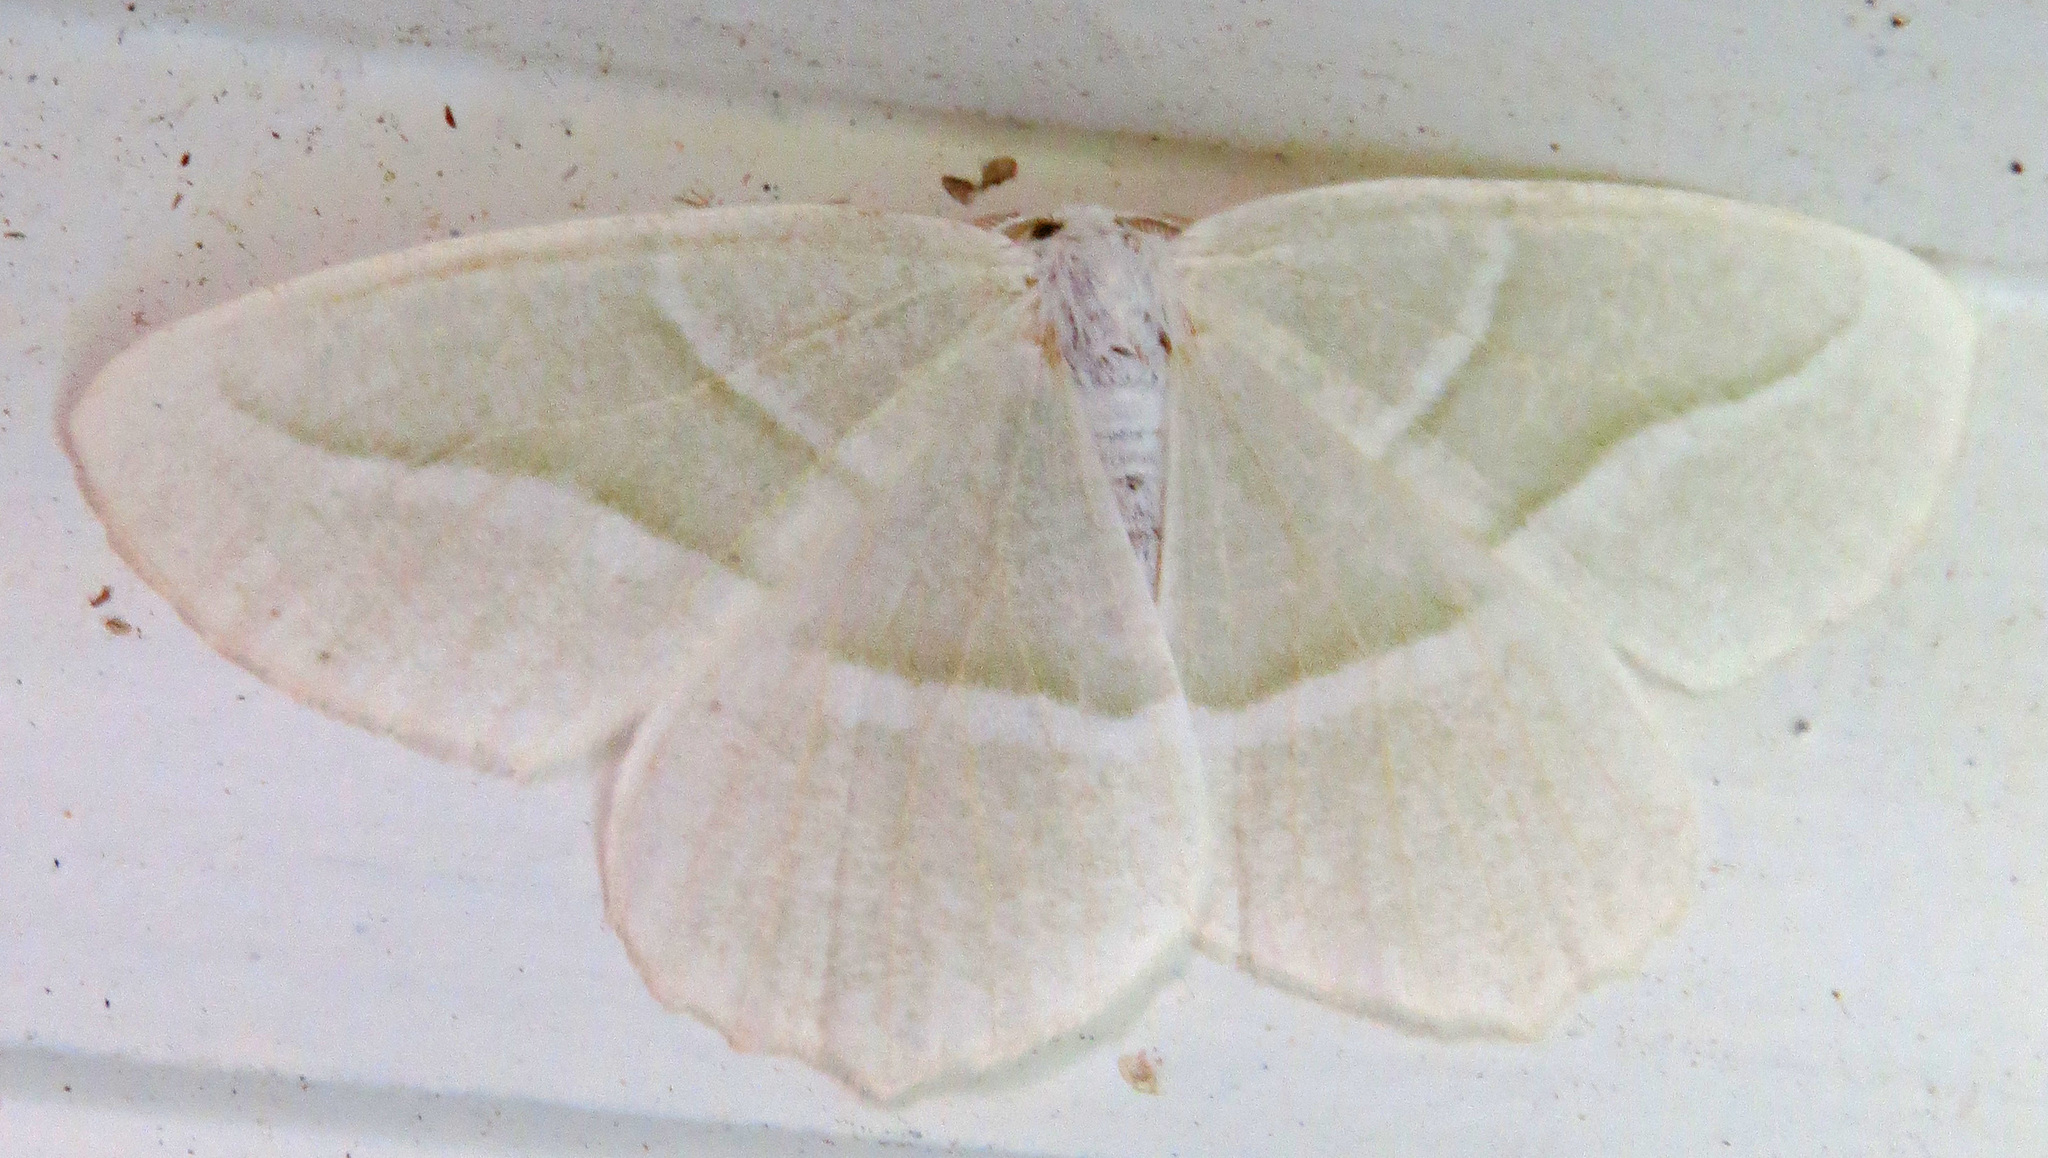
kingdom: Animalia
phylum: Arthropoda
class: Insecta
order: Lepidoptera
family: Geometridae
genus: Campaea
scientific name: Campaea perlata
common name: Fringed looper
